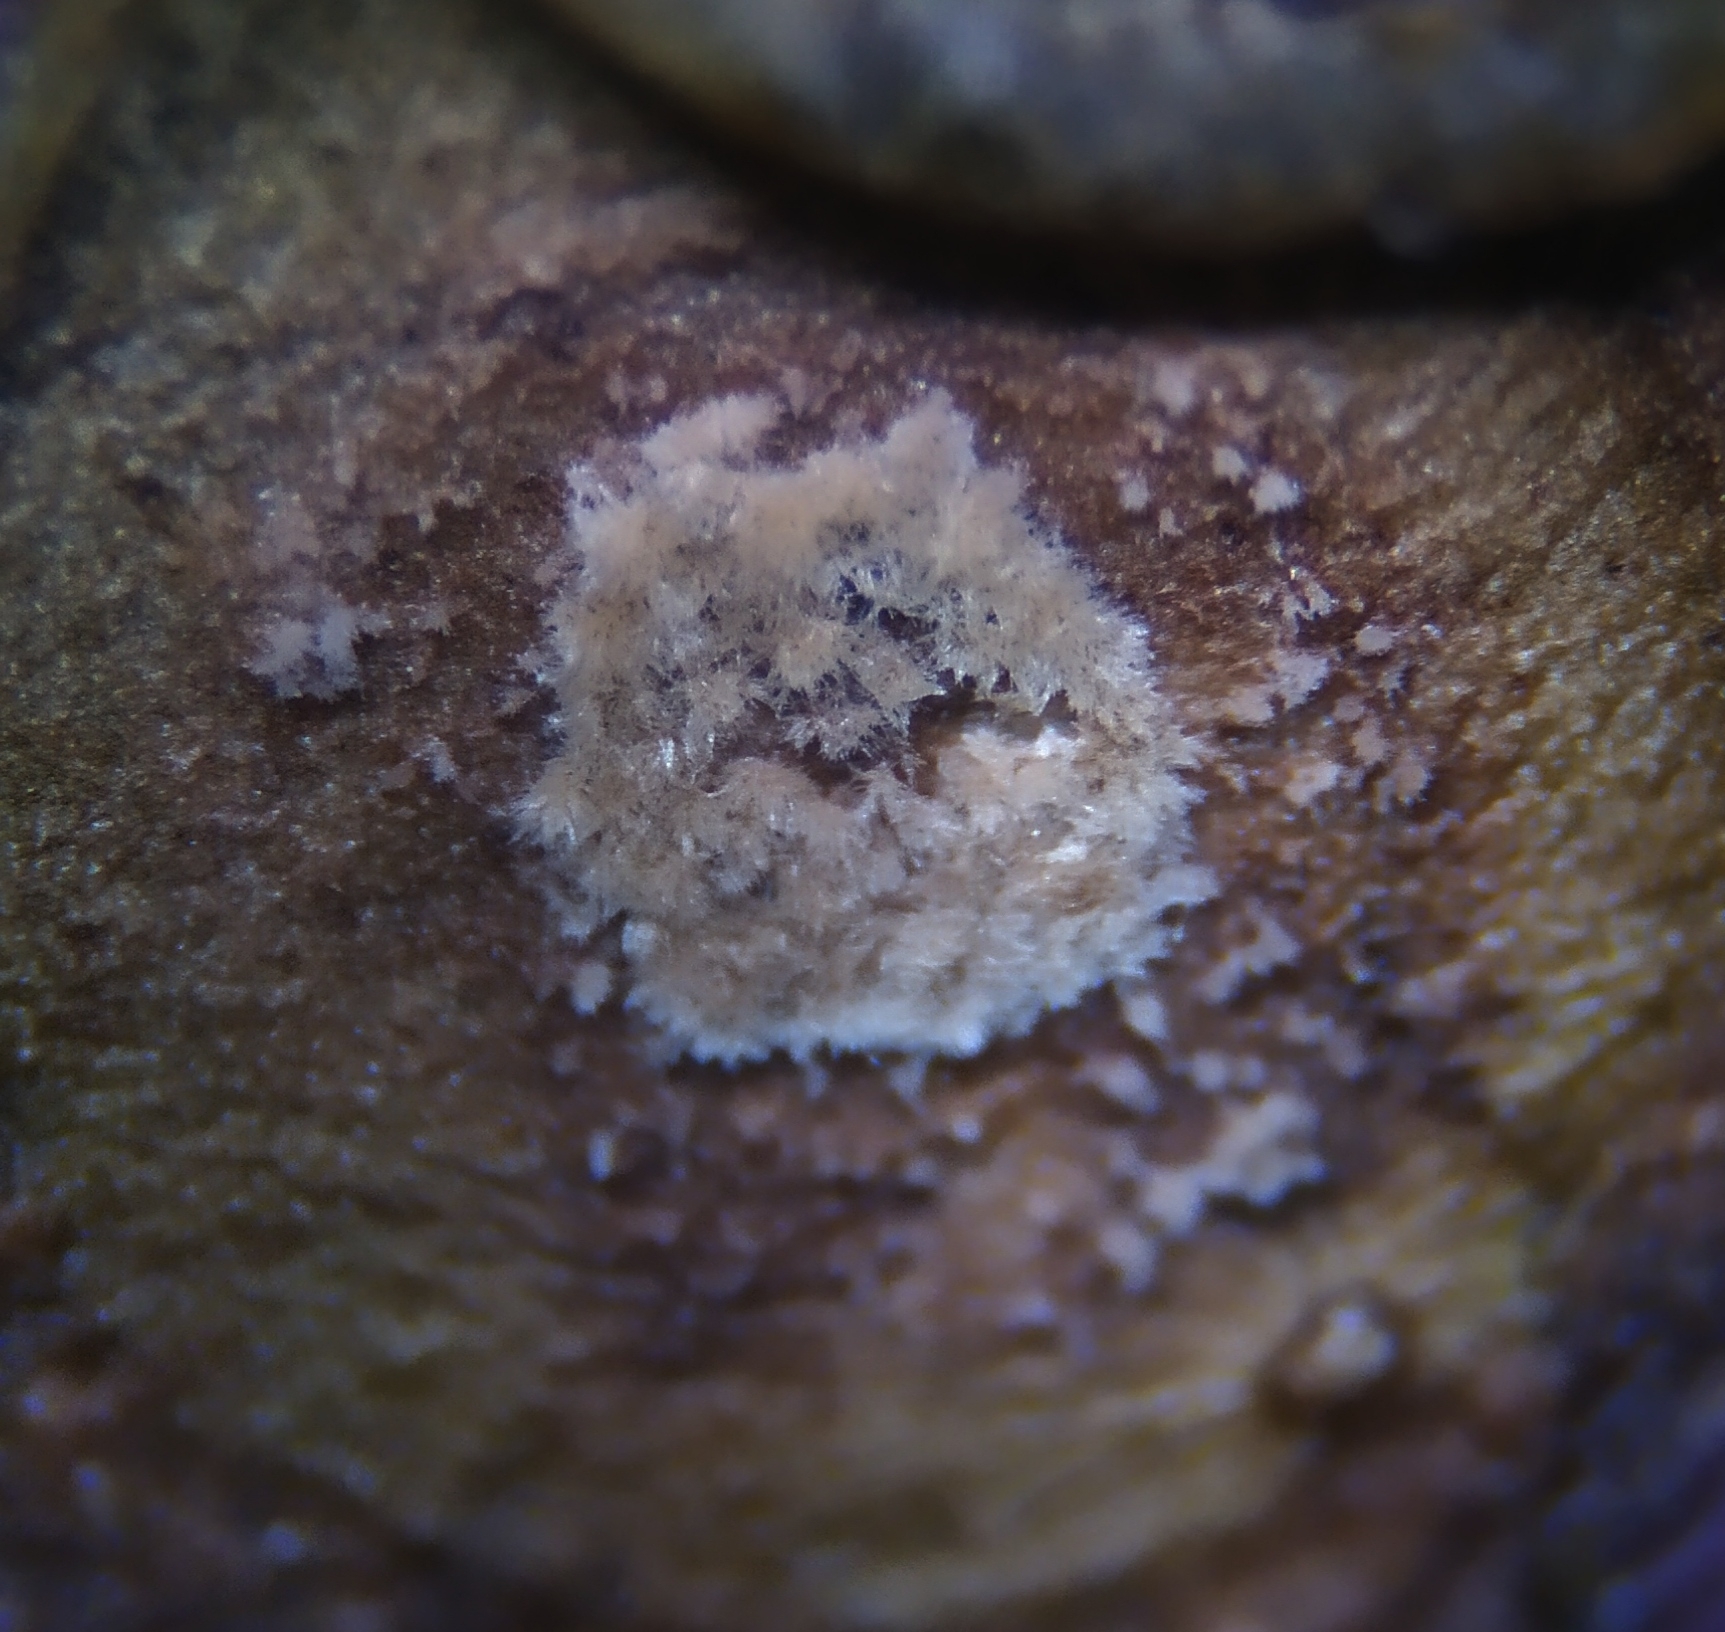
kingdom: Fungi
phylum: Ascomycota
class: Leotiomycetes
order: Helotiales
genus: Thedgonia
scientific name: Thedgonia ligustrina
